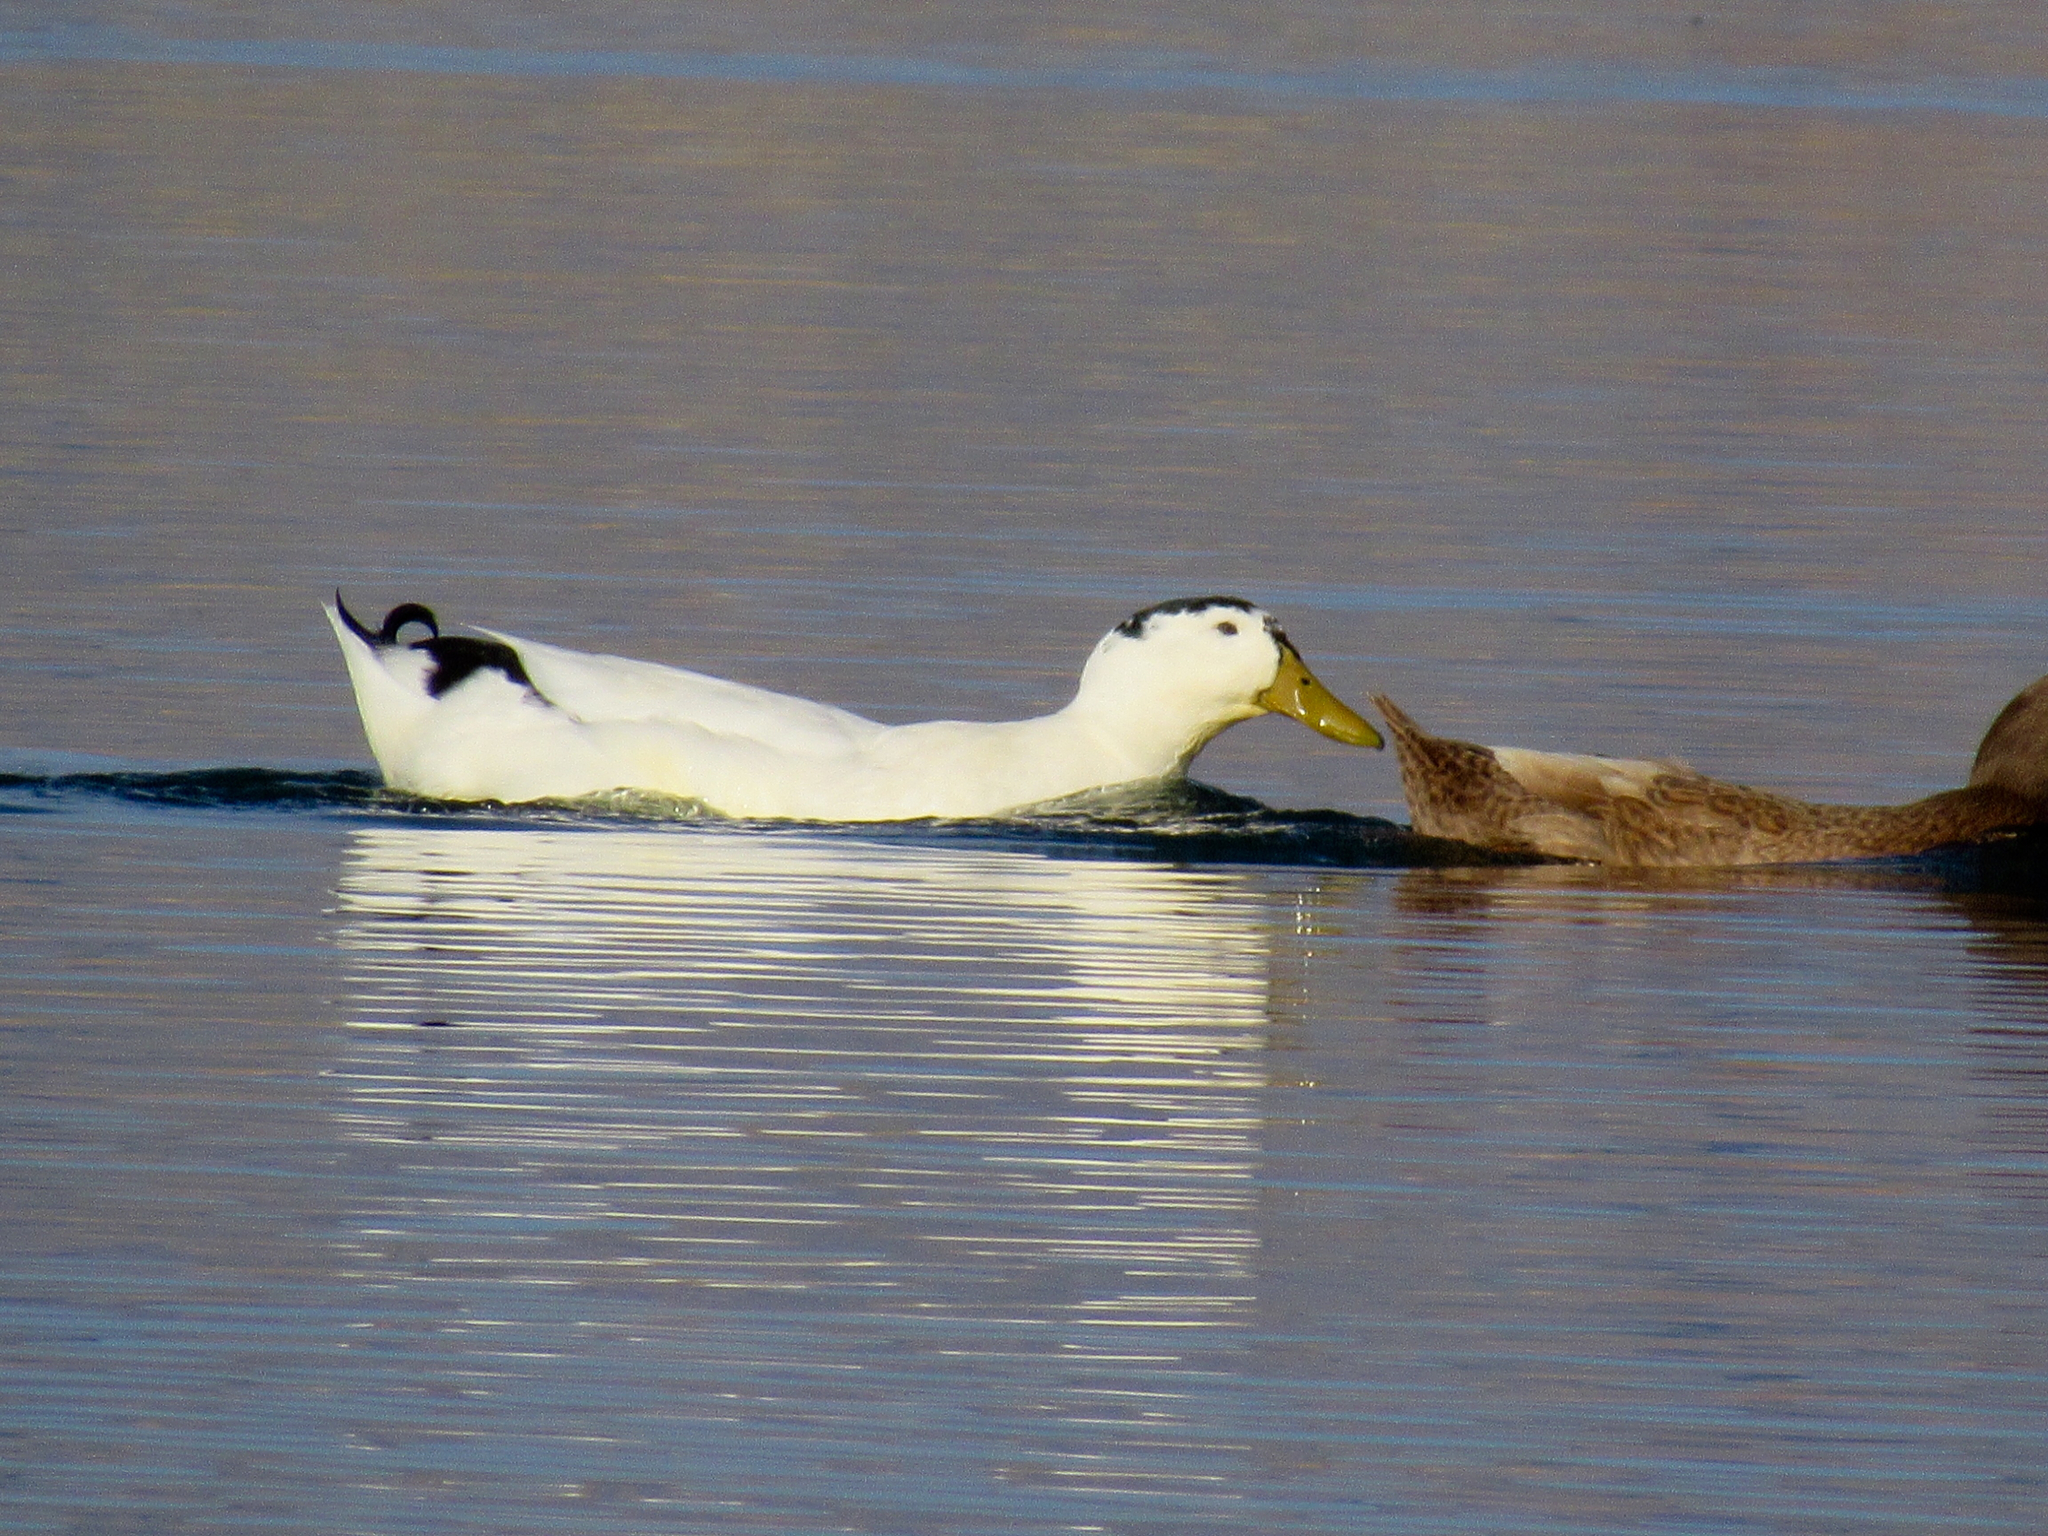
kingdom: Animalia
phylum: Chordata
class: Aves
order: Anseriformes
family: Anatidae
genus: Anas
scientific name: Anas platyrhynchos
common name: Mallard
